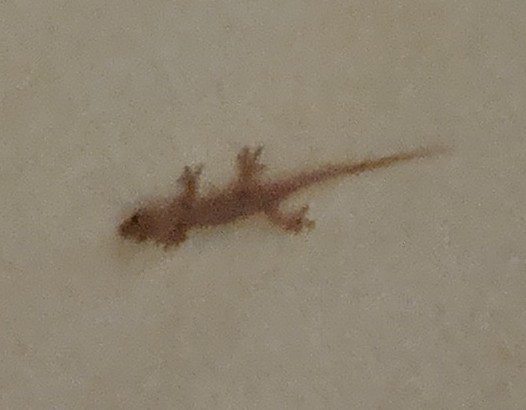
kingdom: Animalia
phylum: Chordata
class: Squamata
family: Gekkonidae
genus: Hemidactylus
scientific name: Hemidactylus frenatus
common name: Common house gecko
